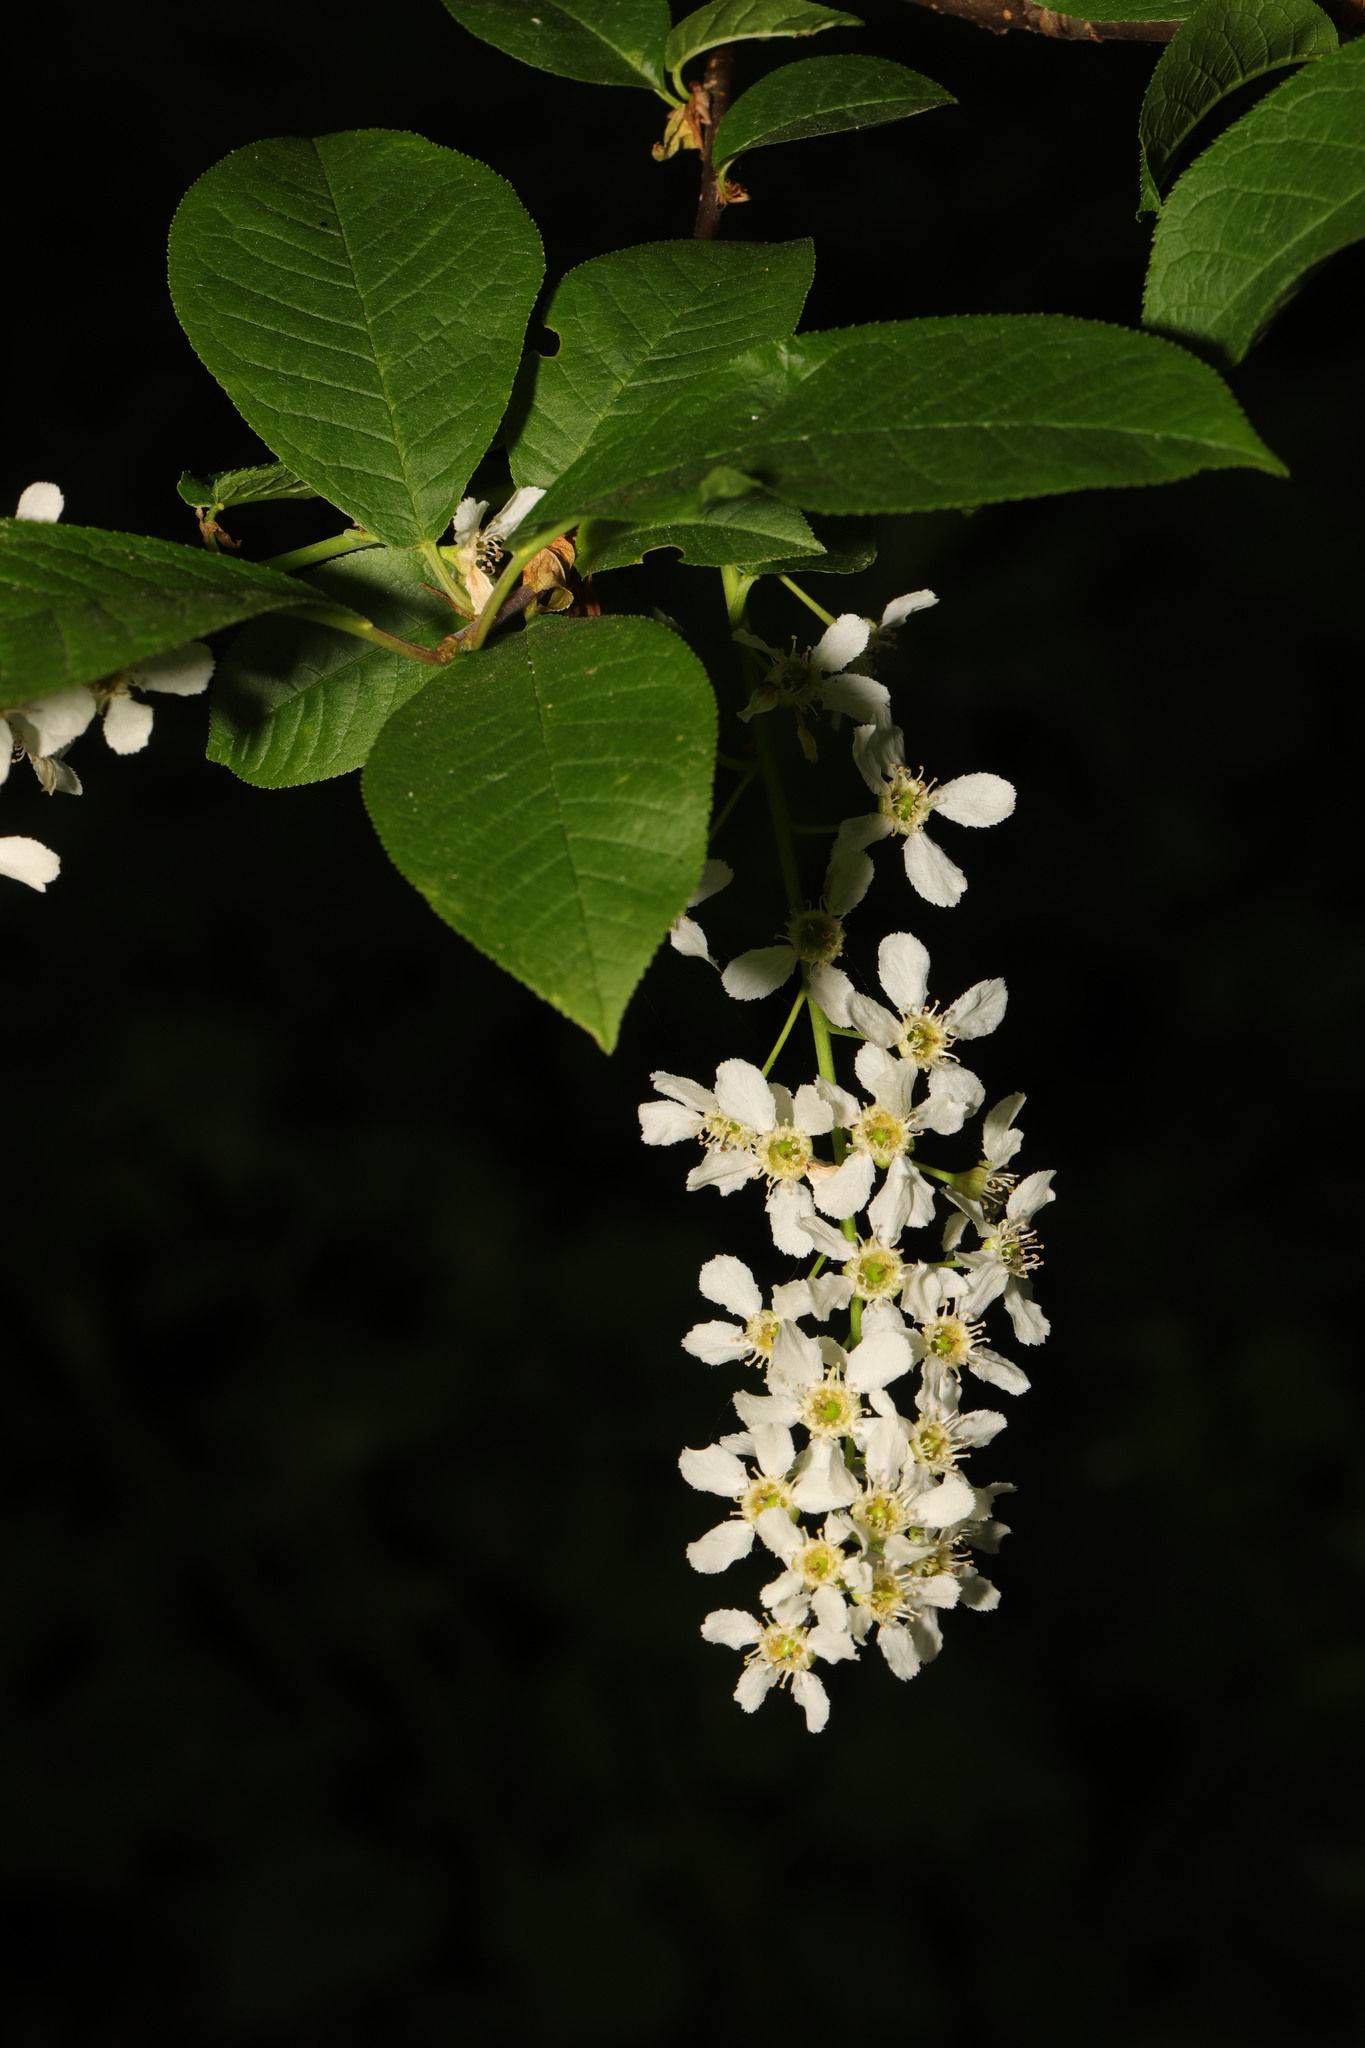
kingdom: Plantae
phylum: Tracheophyta
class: Magnoliopsida
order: Rosales
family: Rosaceae
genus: Prunus
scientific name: Prunus padus
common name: Bird cherry
